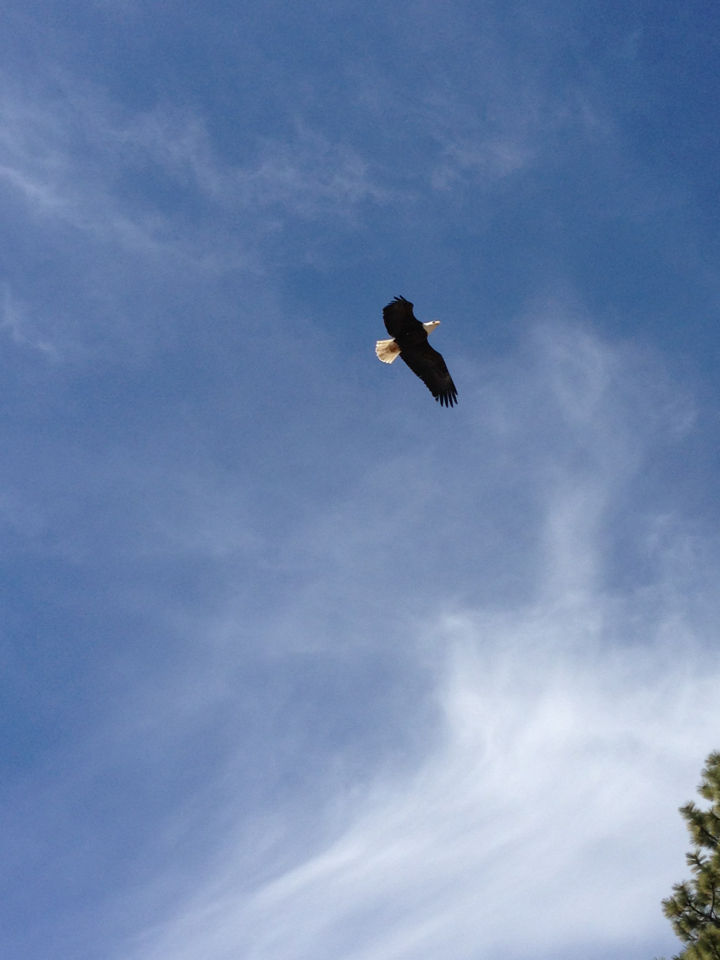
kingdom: Animalia
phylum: Chordata
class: Aves
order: Accipitriformes
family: Accipitridae
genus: Haliaeetus
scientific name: Haliaeetus leucocephalus
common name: Bald eagle
